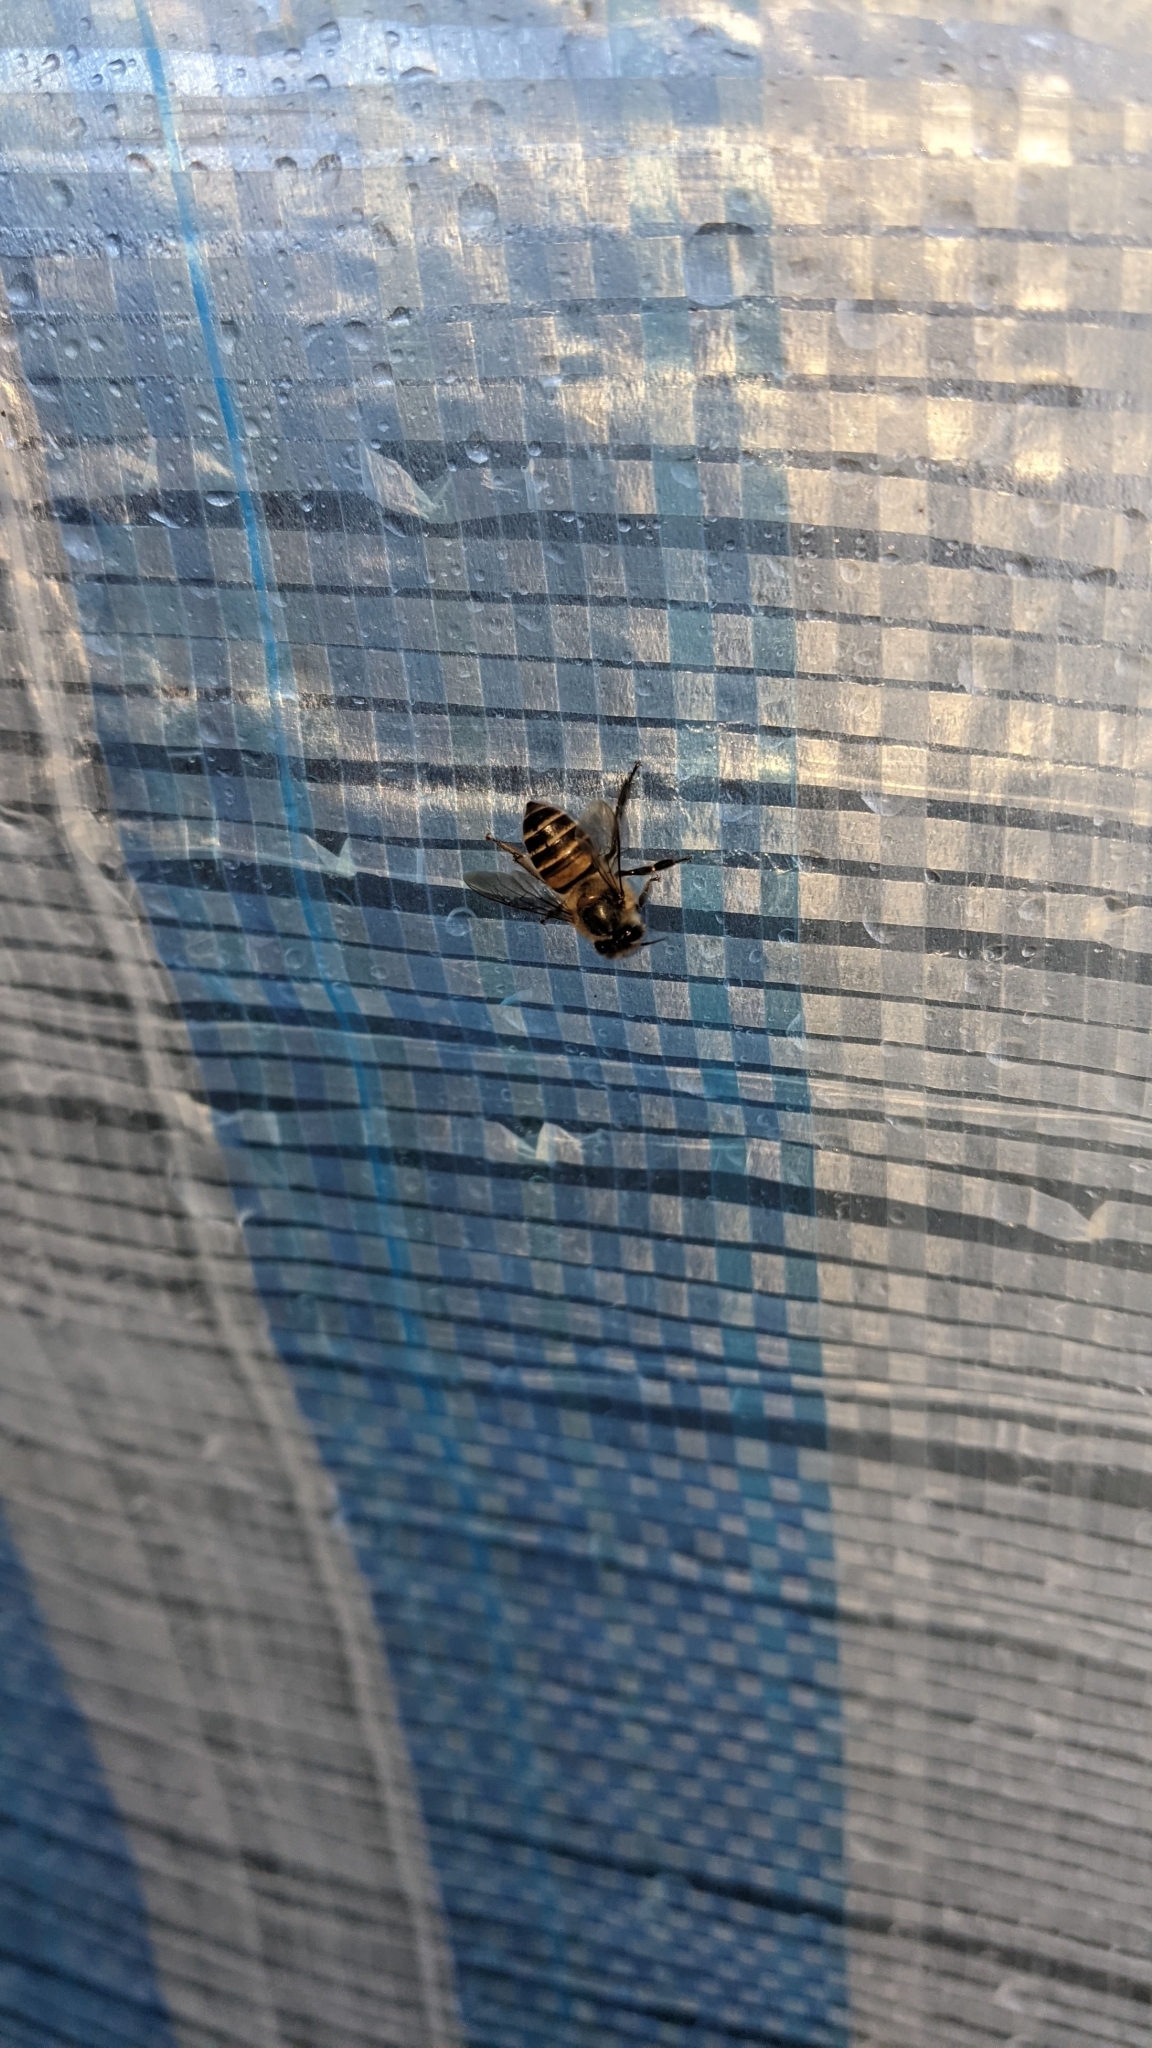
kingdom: Animalia
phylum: Arthropoda
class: Insecta
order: Hymenoptera
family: Apidae
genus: Apis
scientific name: Apis cerana
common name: Honey bee
